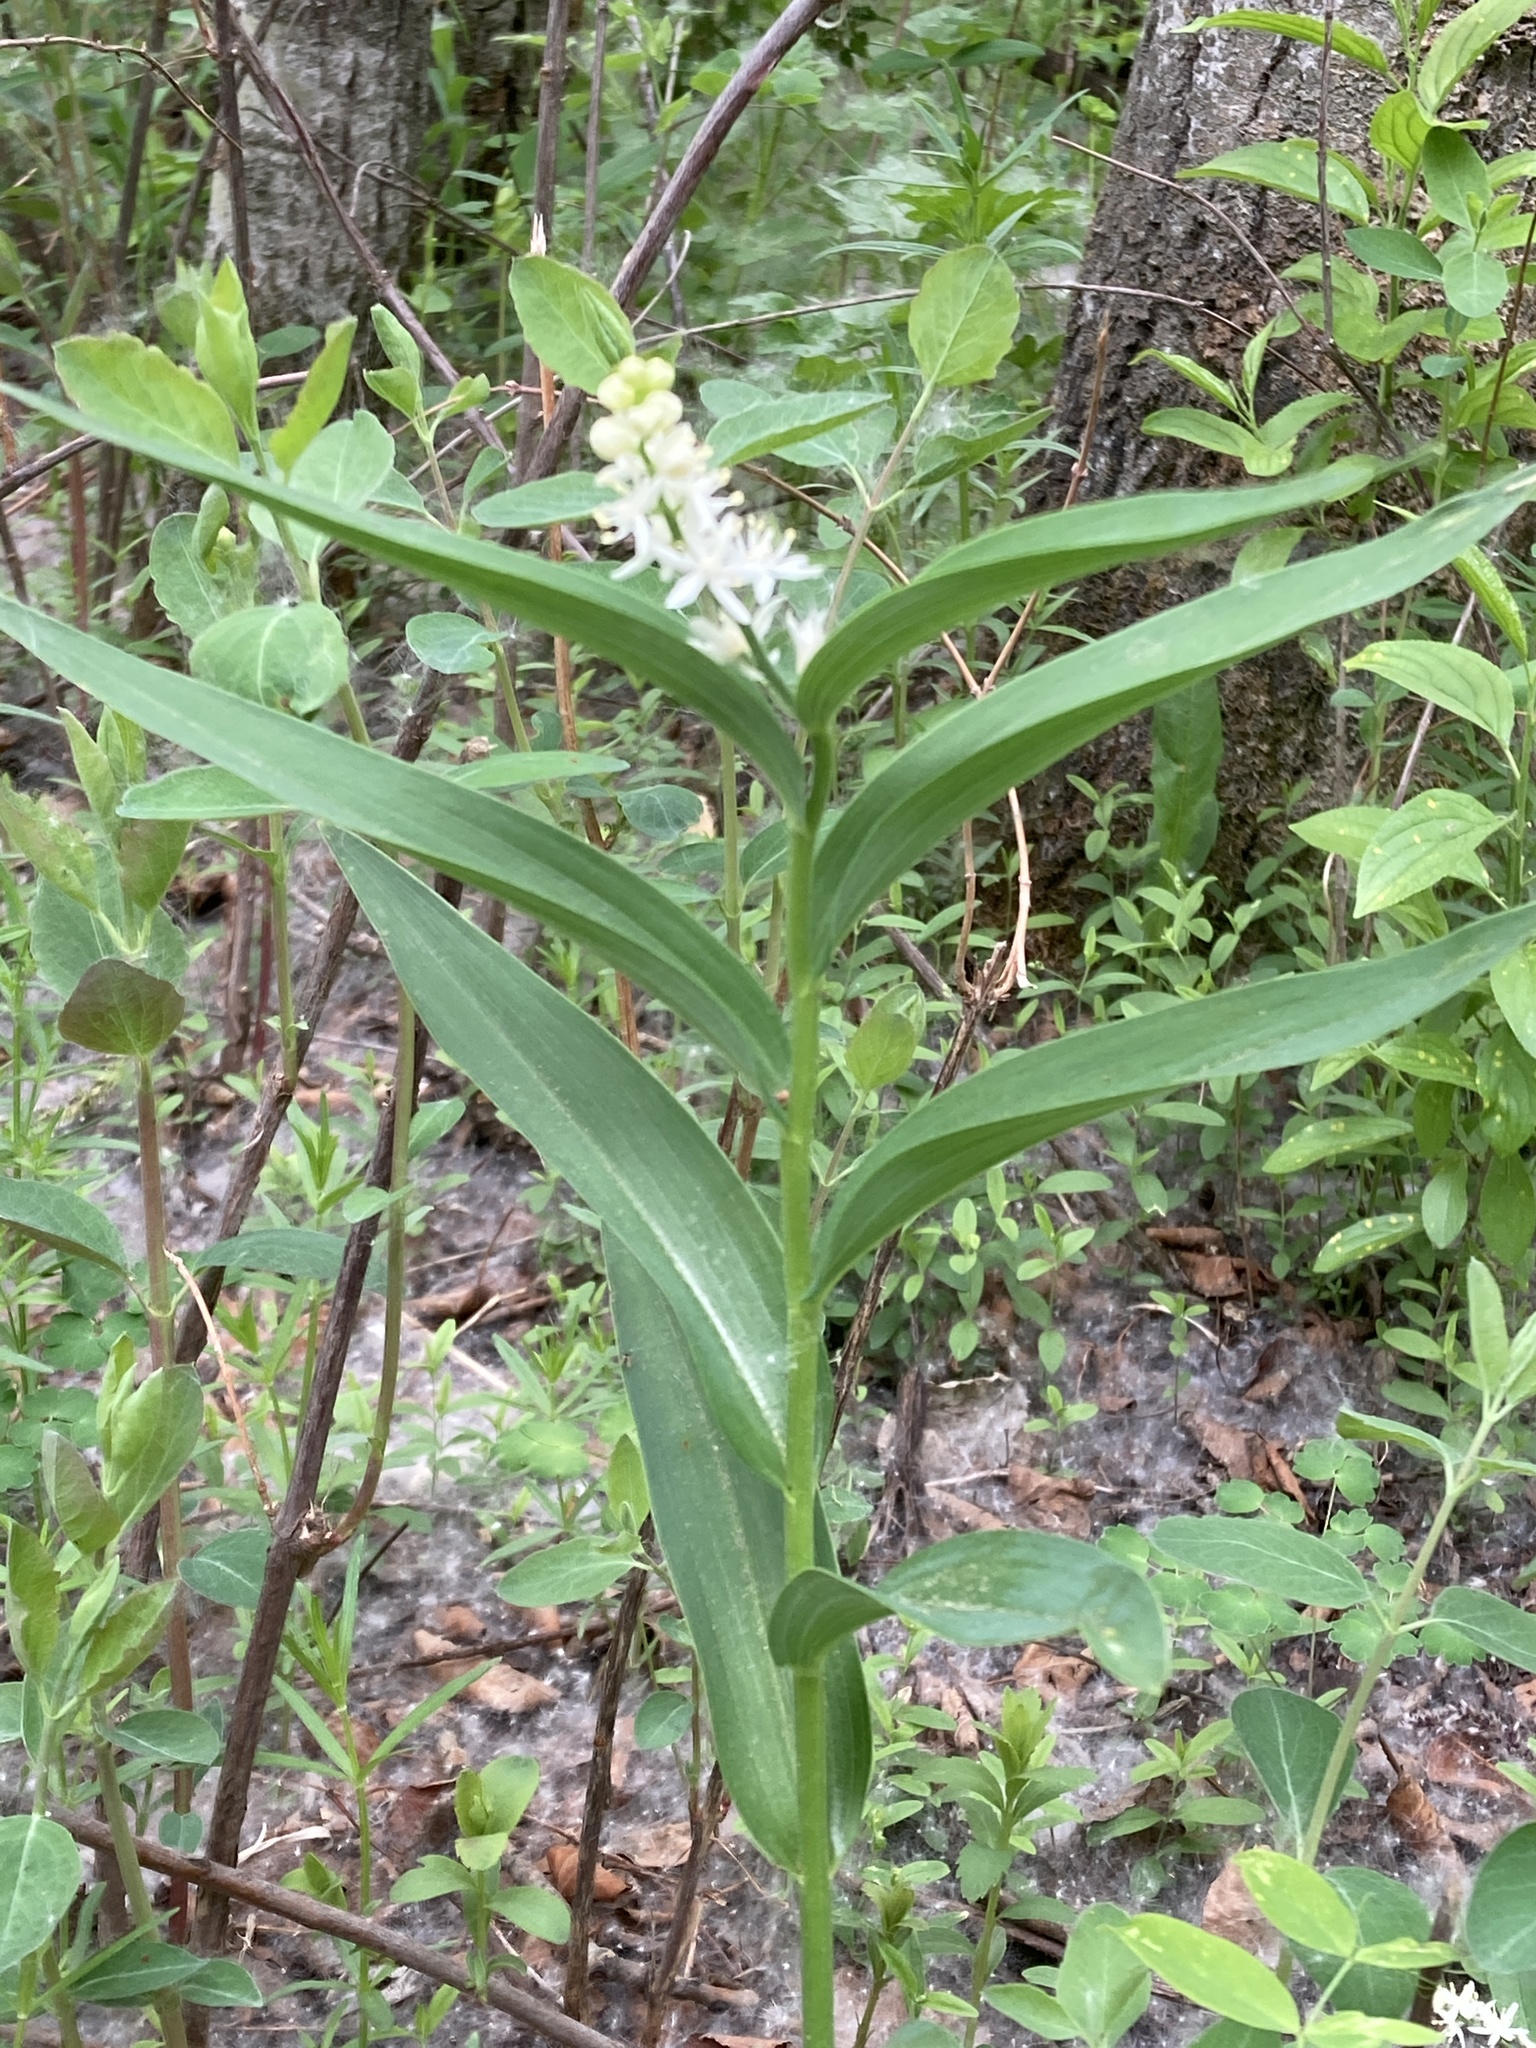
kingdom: Plantae
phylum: Tracheophyta
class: Liliopsida
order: Asparagales
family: Asparagaceae
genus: Maianthemum
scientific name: Maianthemum stellatum
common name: Little false solomon's seal
